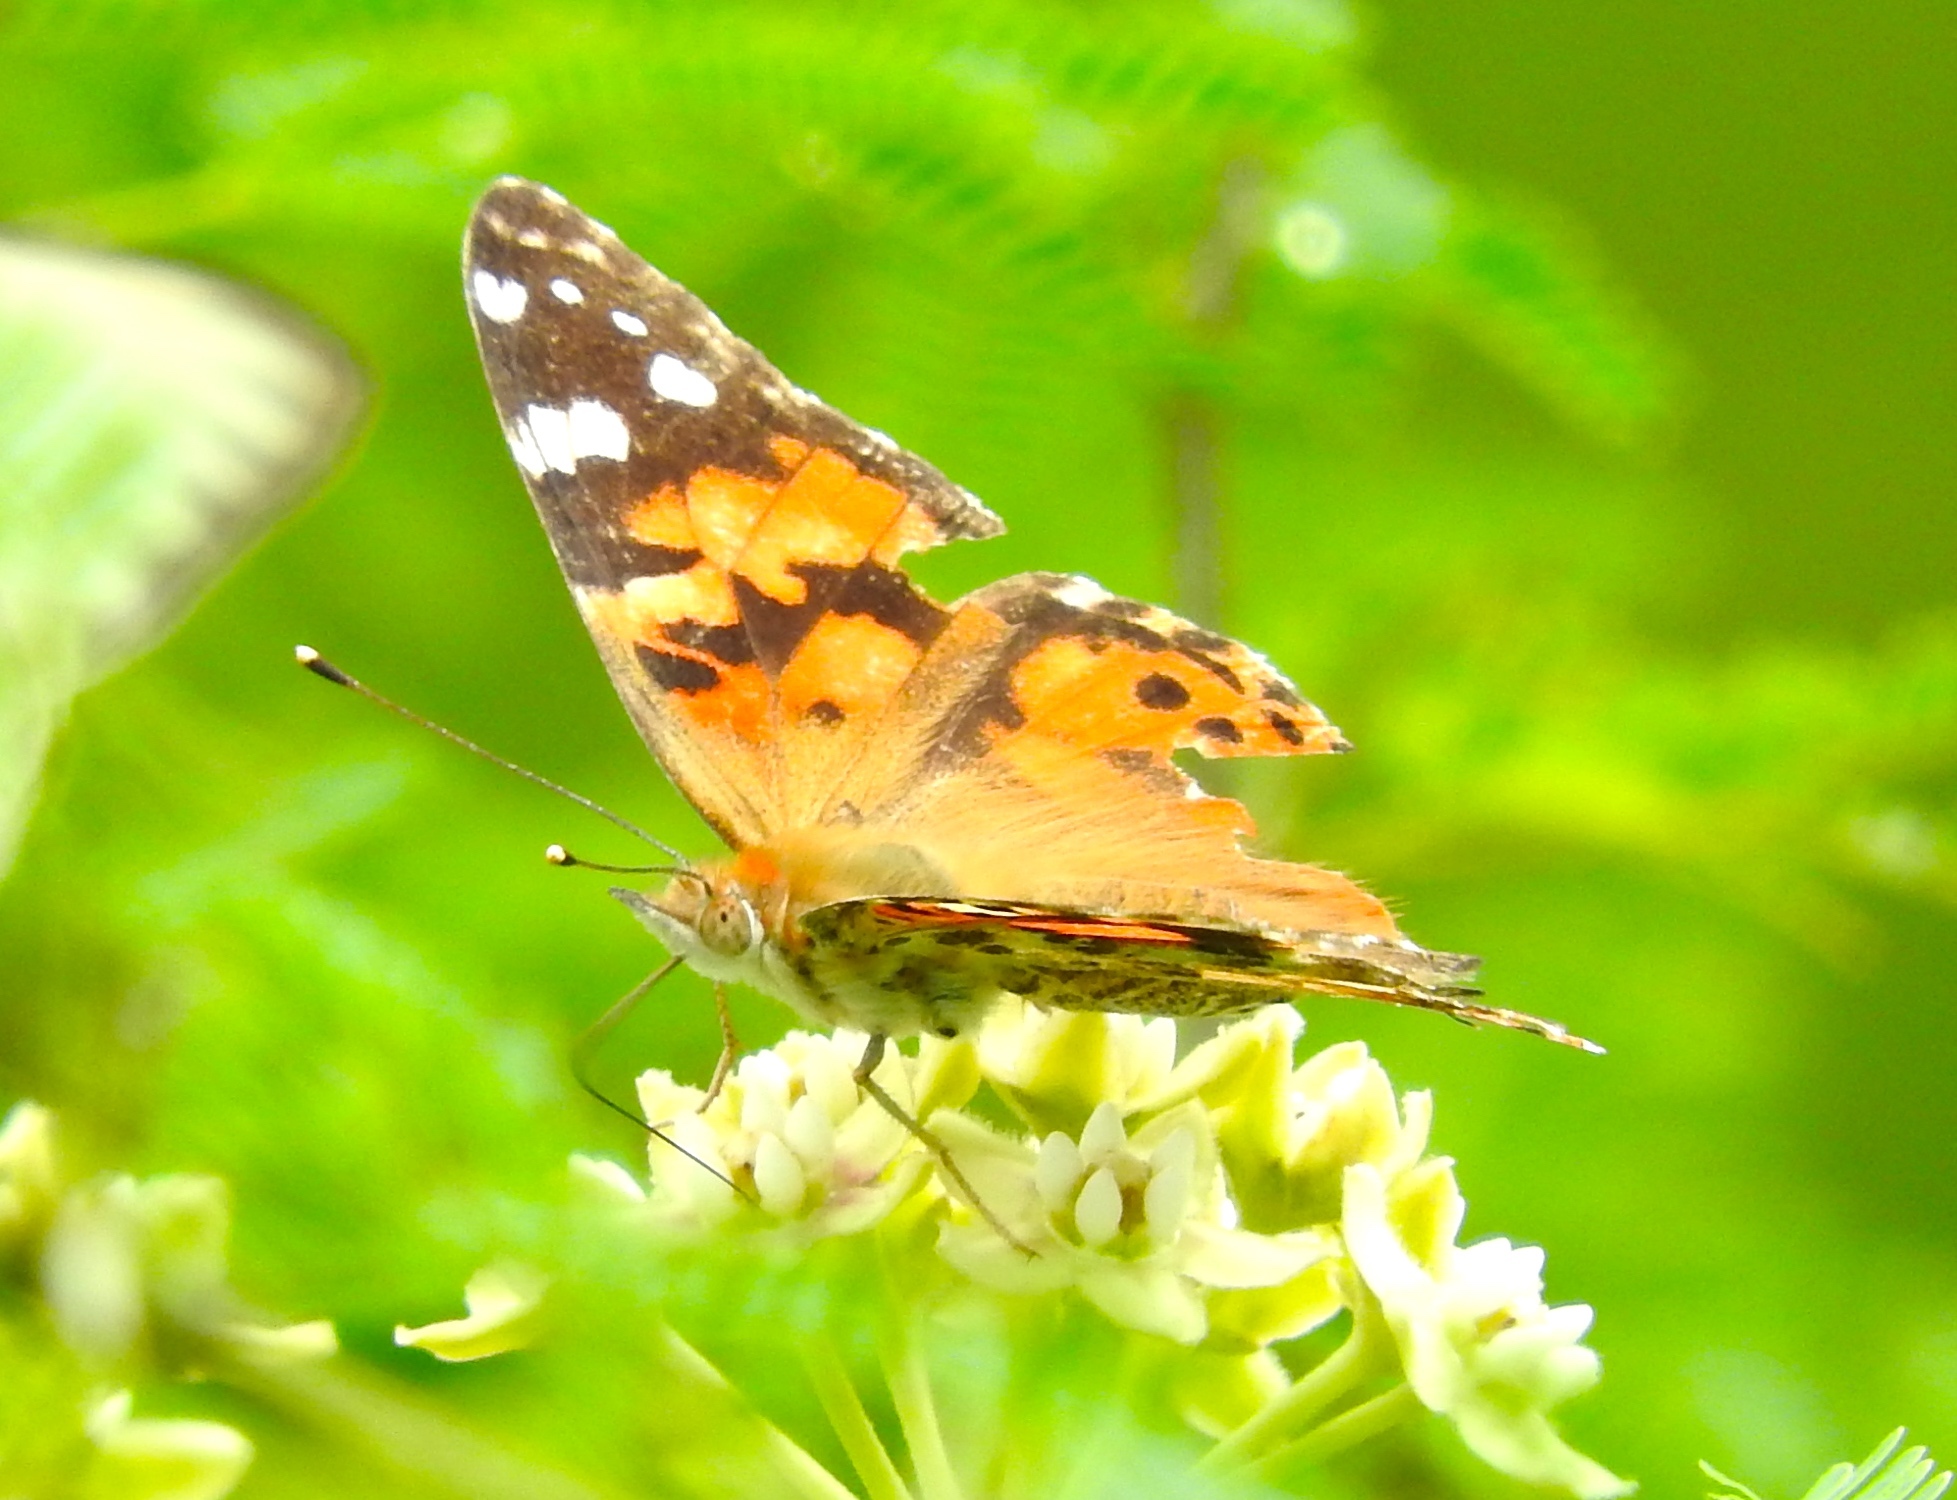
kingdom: Animalia
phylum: Arthropoda
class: Insecta
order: Lepidoptera
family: Nymphalidae
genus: Vanessa
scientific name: Vanessa cardui
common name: Painted lady
